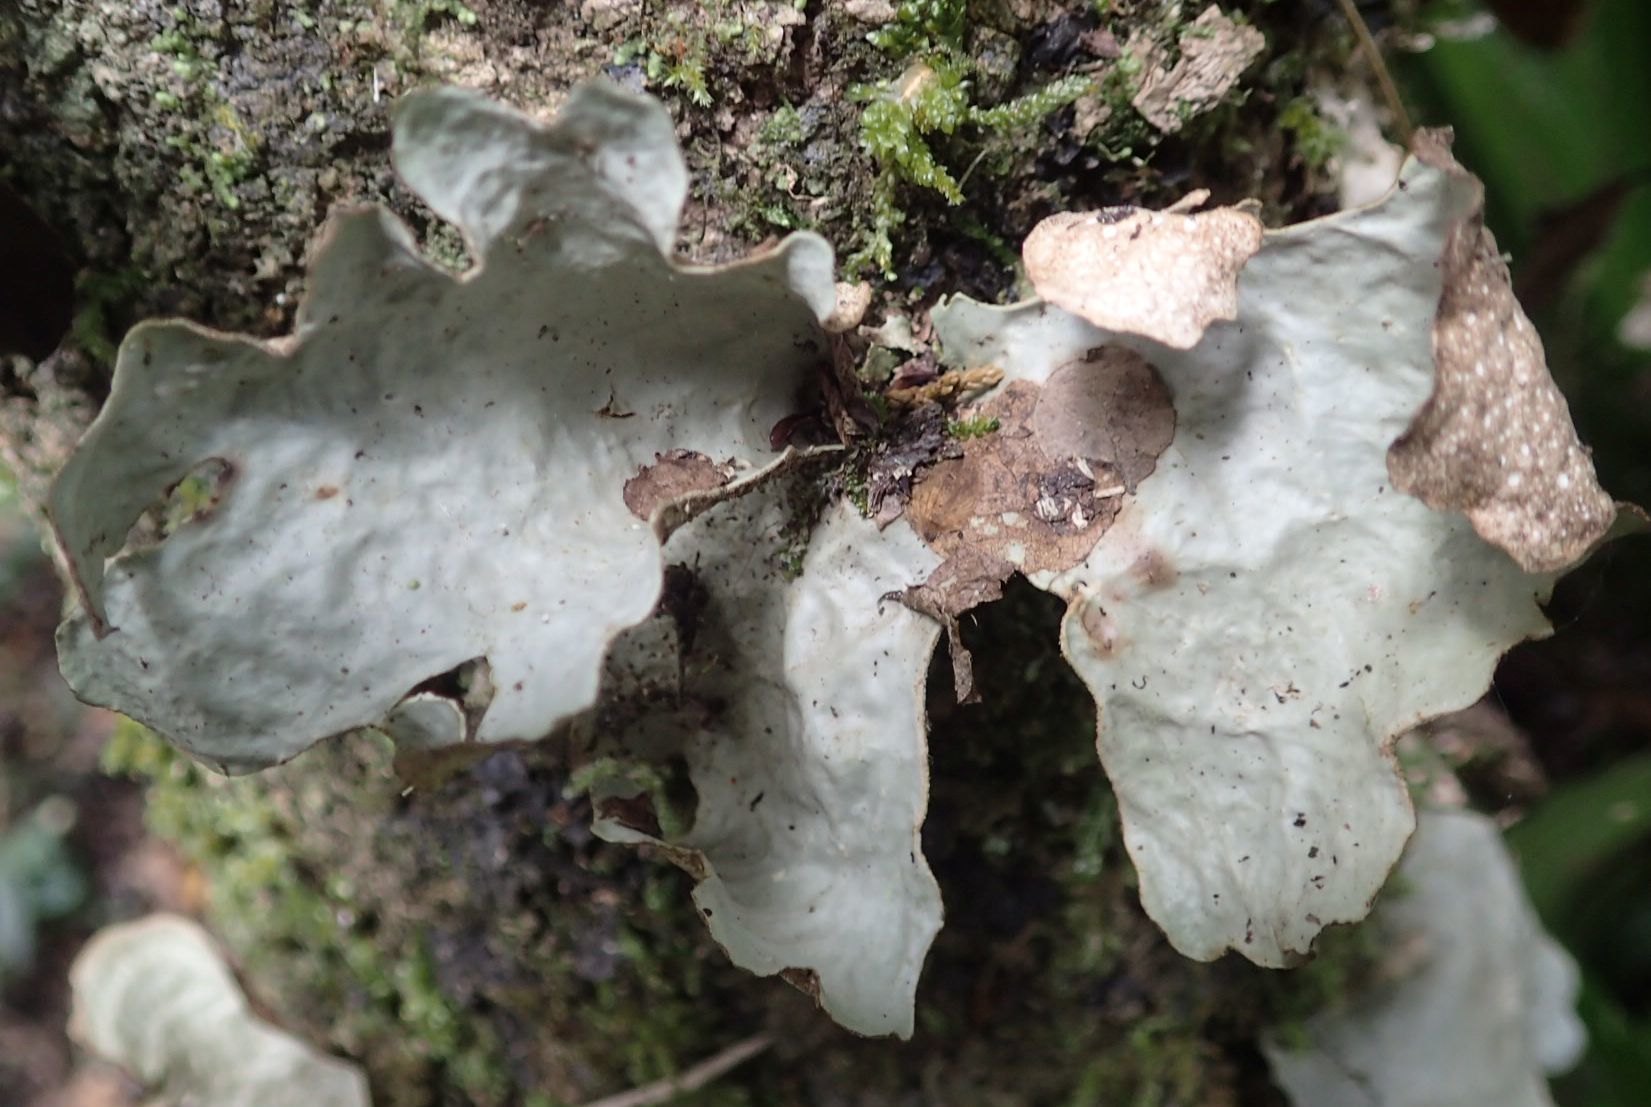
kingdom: Fungi
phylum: Ascomycota
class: Lecanoromycetes
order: Peltigerales
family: Lobariaceae
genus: Sticta
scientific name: Sticta latifrons
